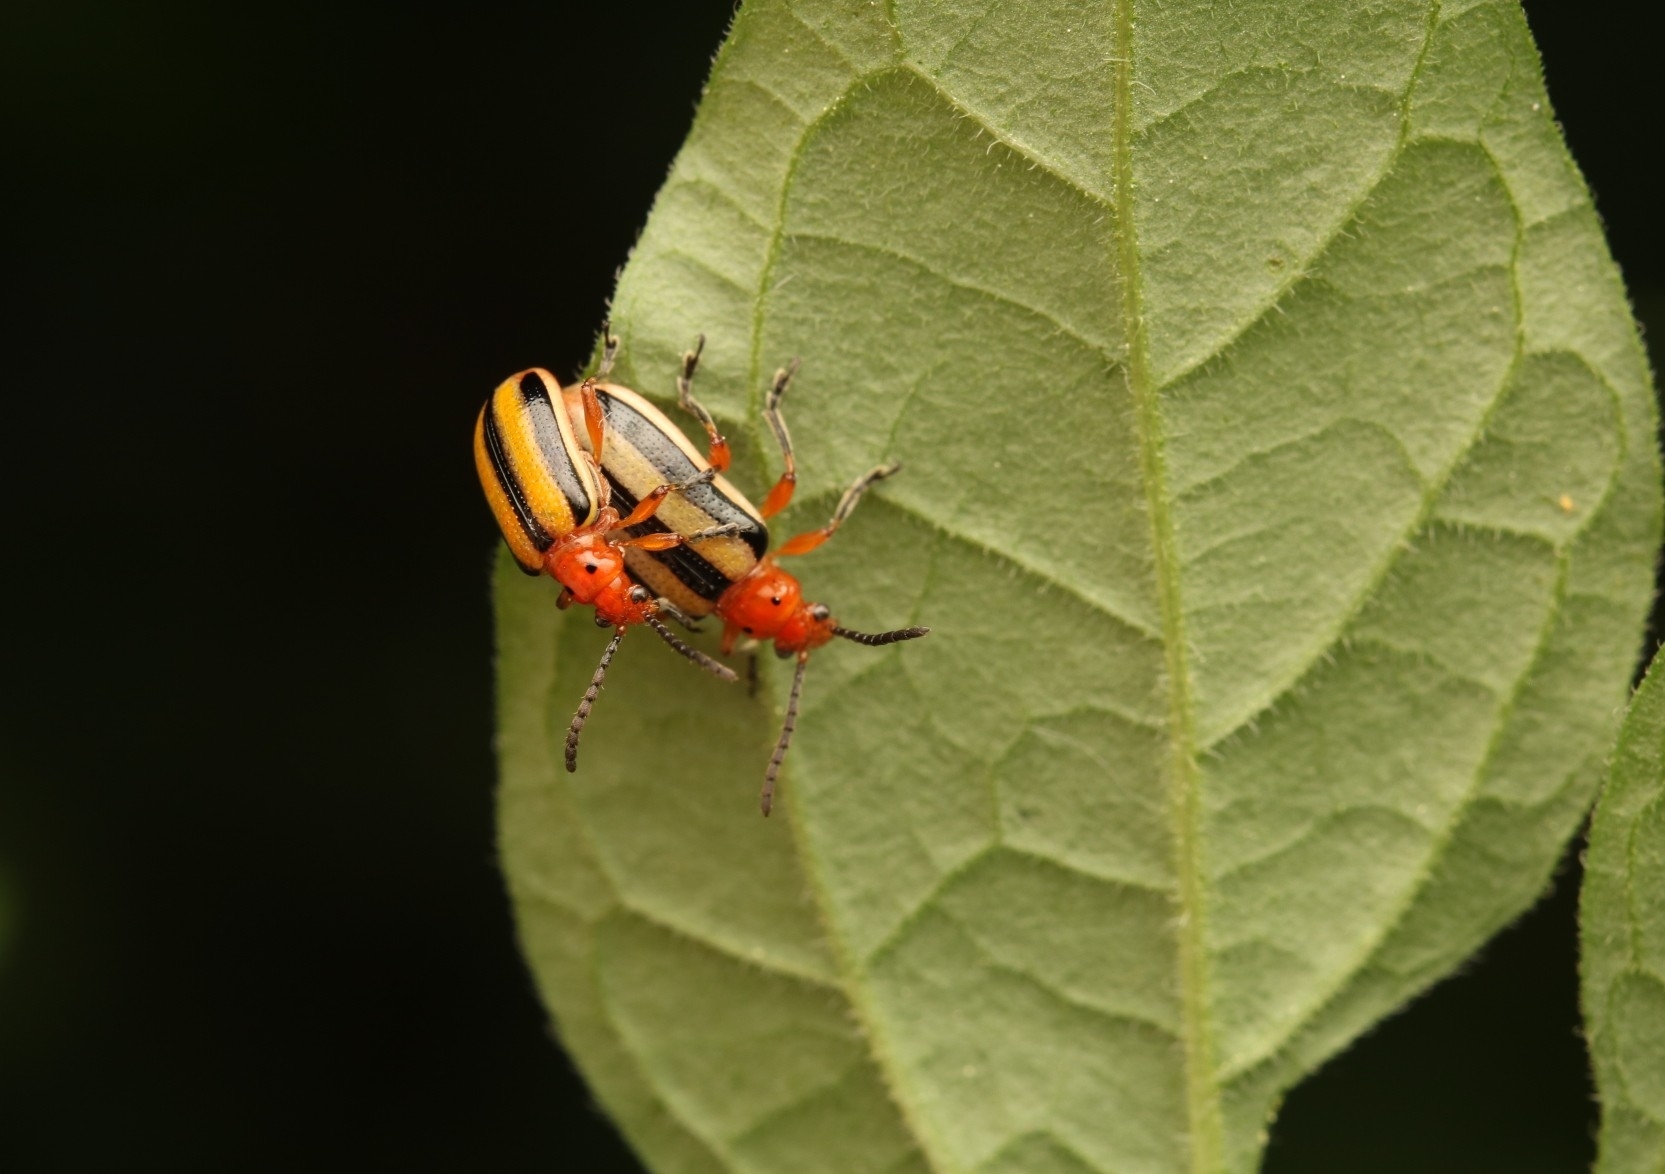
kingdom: Animalia
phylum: Arthropoda
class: Insecta
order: Coleoptera
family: Chrysomelidae
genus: Lema
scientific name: Lema daturaphila
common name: Leaf beetle
